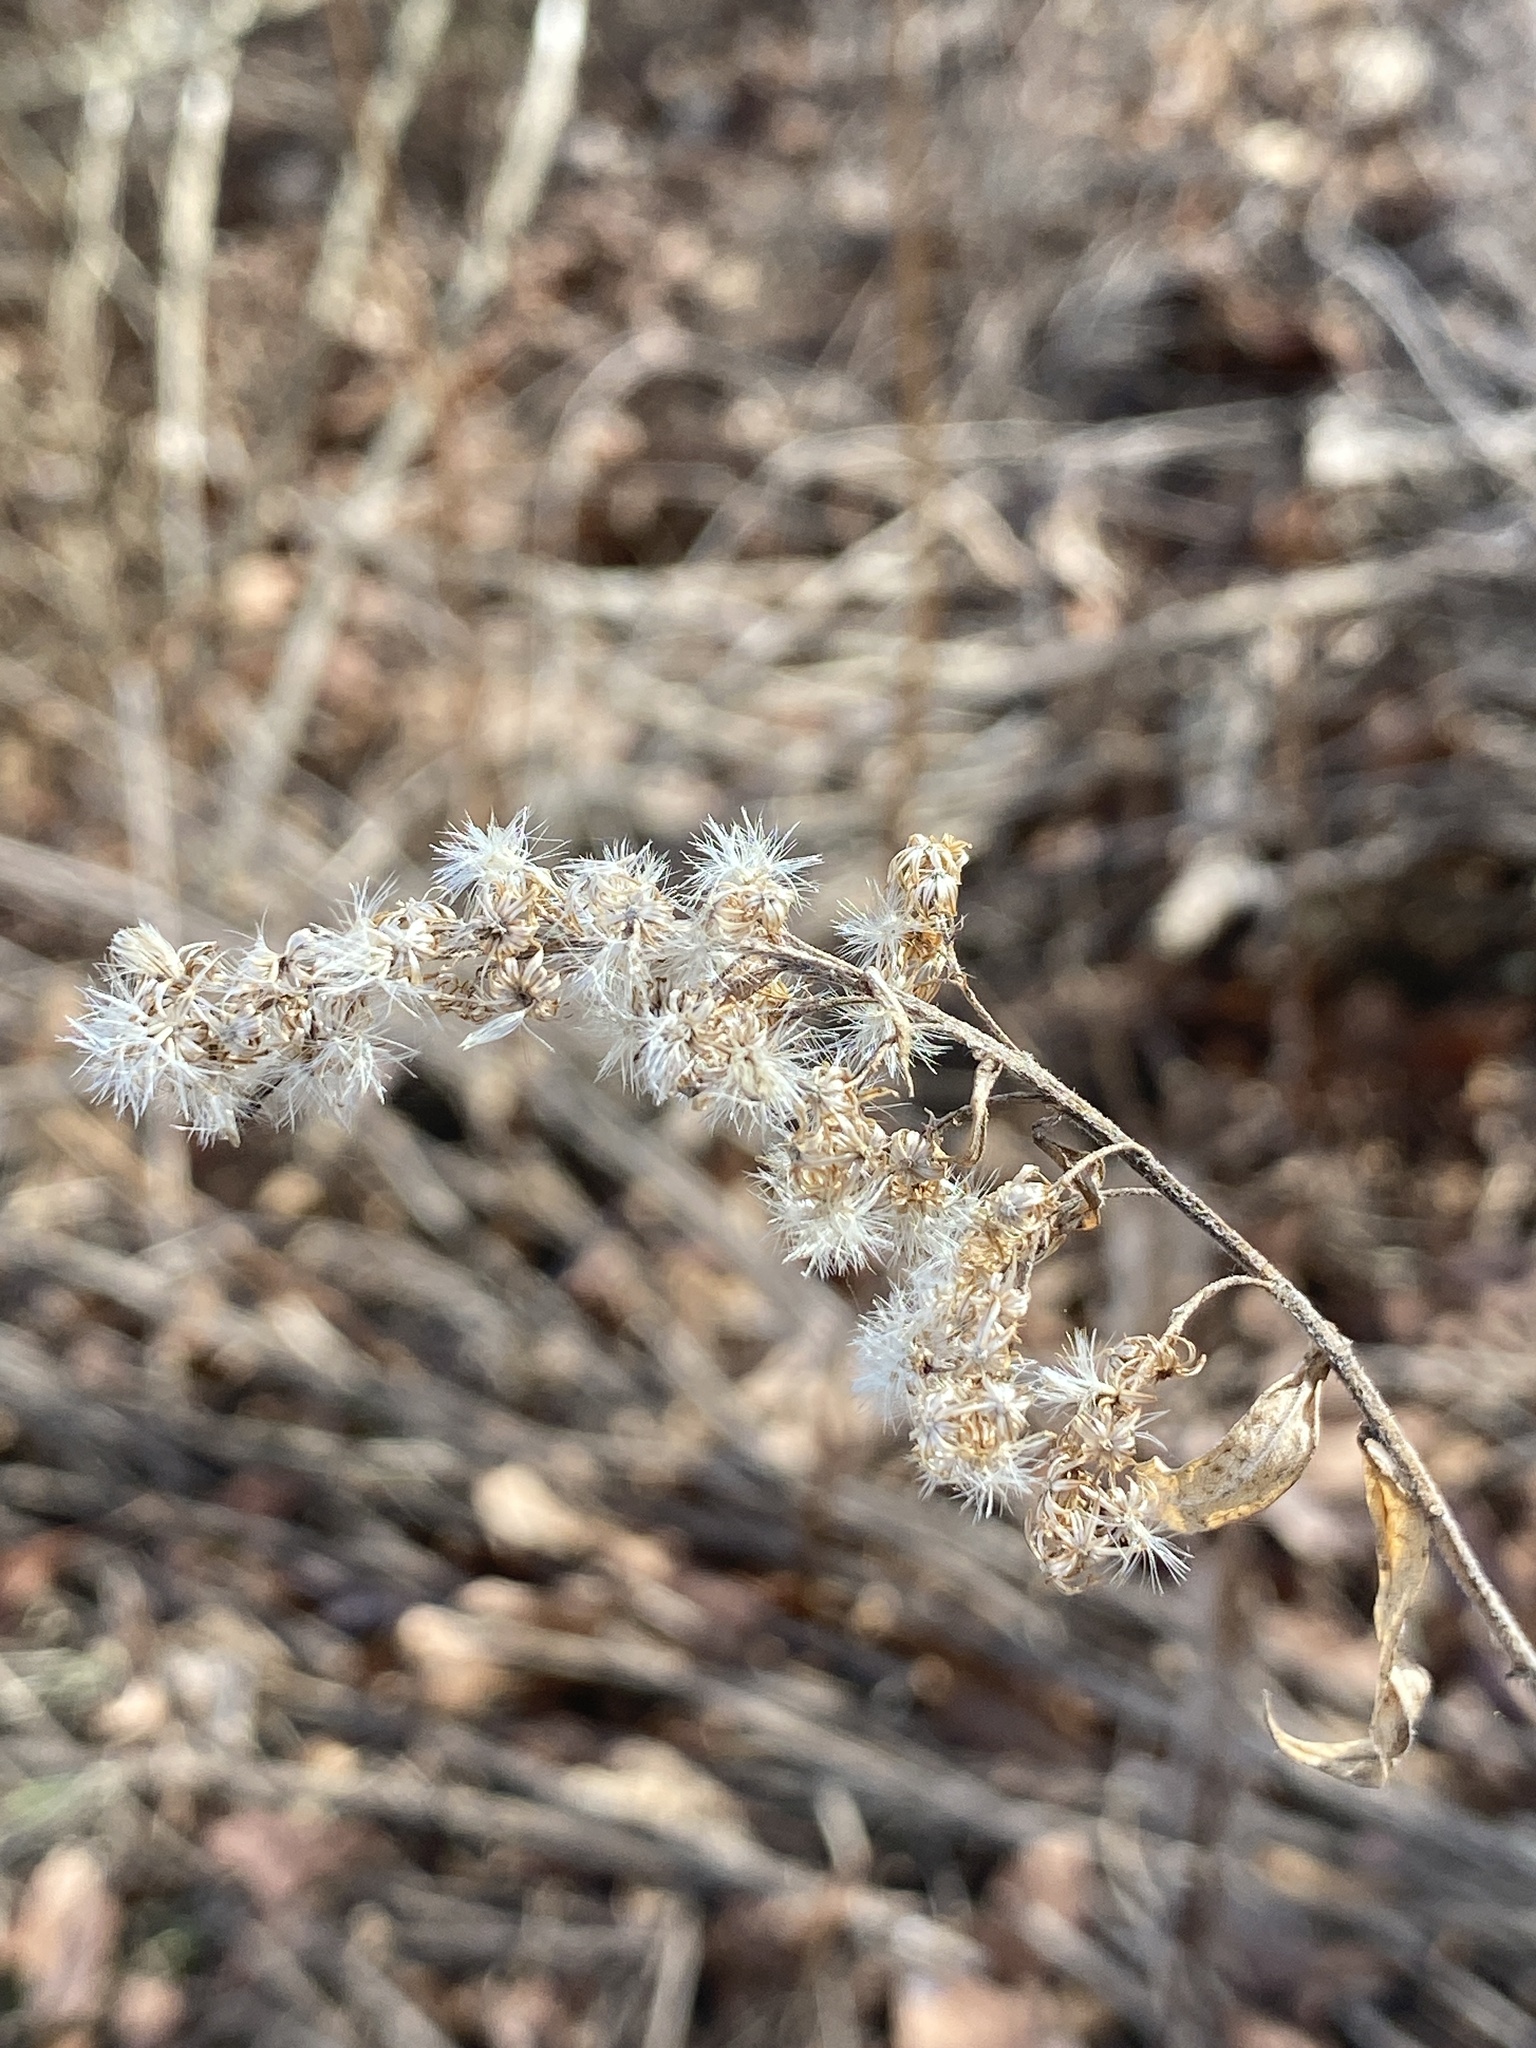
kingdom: Plantae
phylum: Tracheophyta
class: Magnoliopsida
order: Asterales
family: Asteraceae
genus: Solidago
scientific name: Solidago altissima
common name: Late goldenrod
